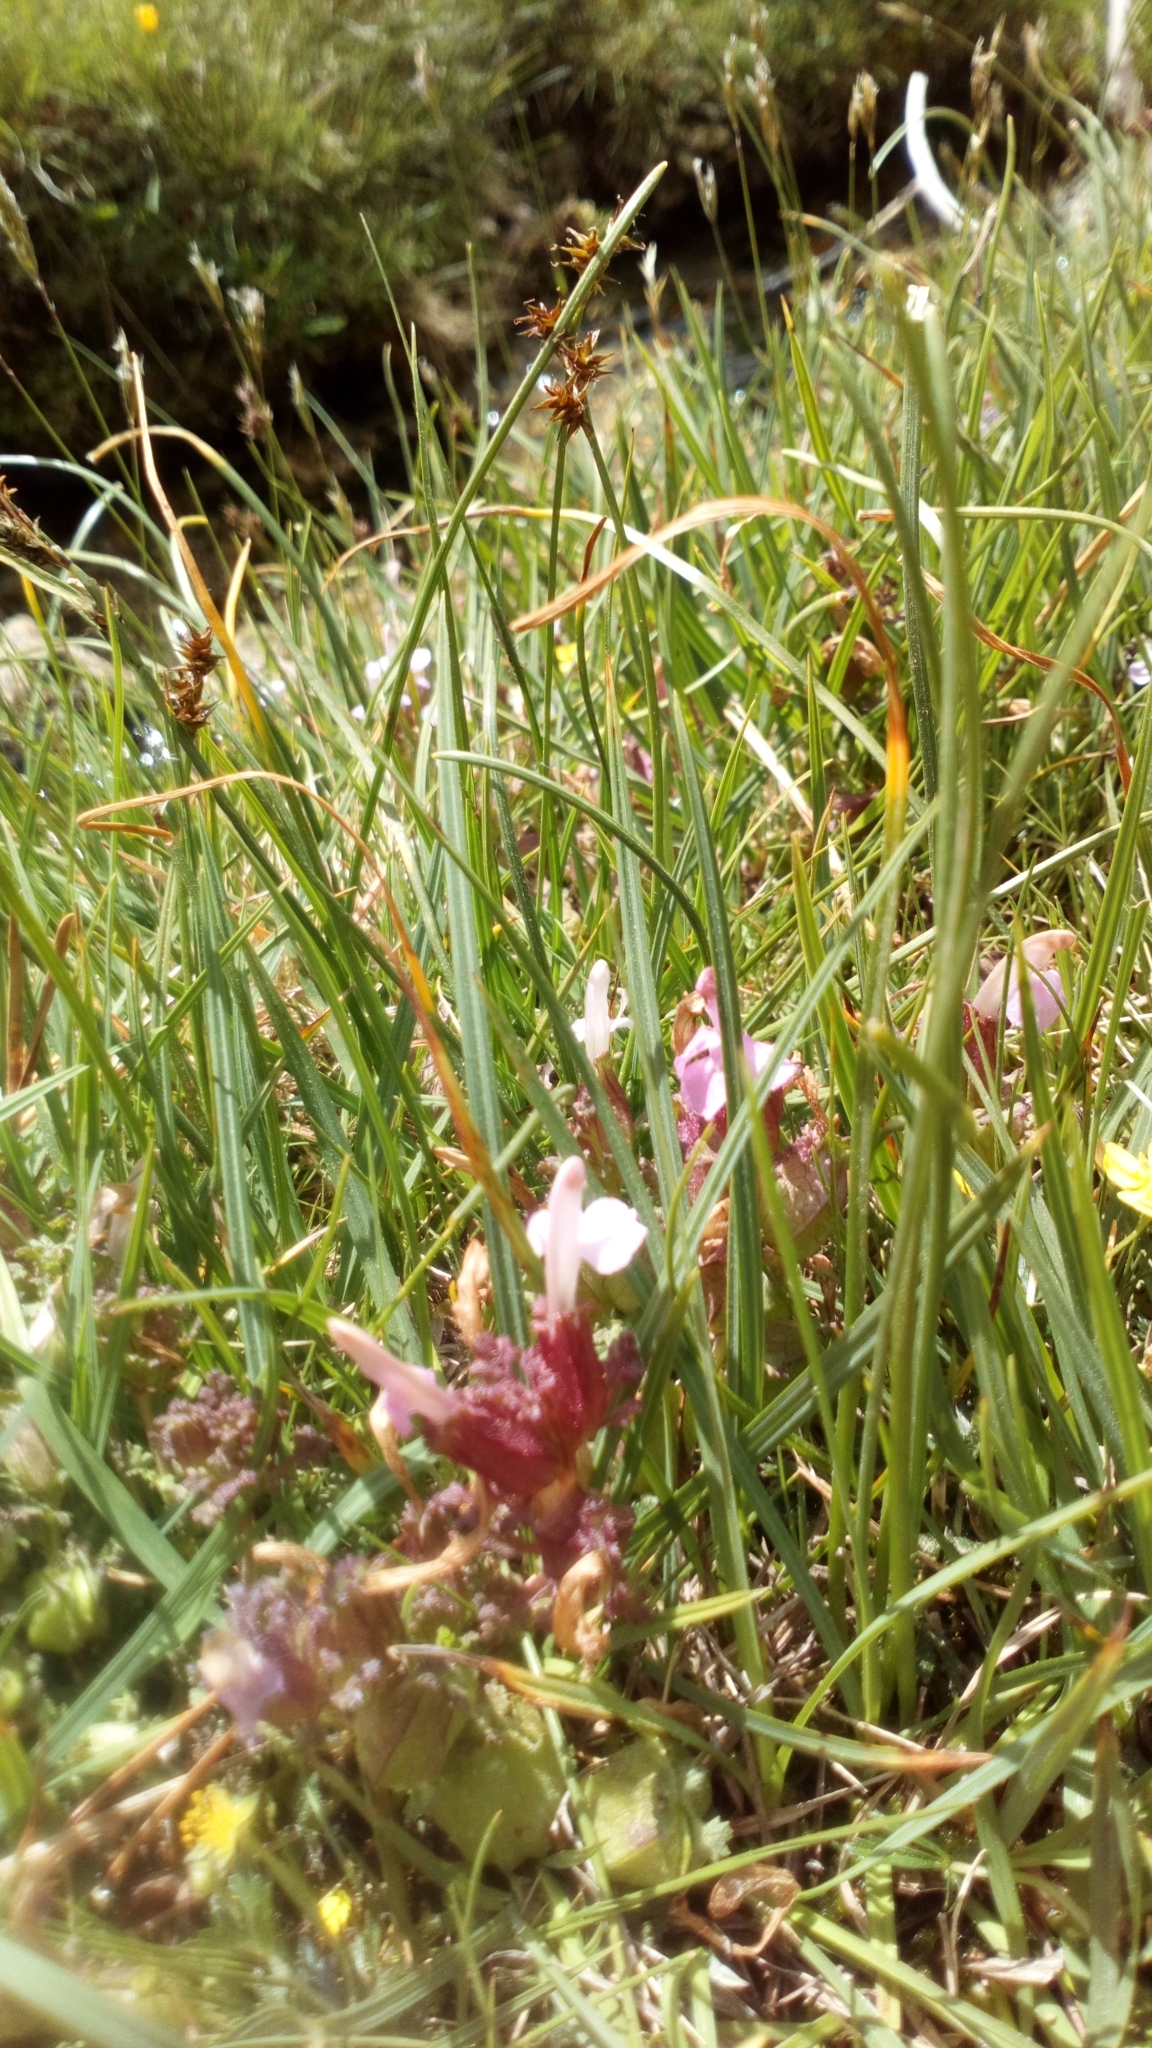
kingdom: Plantae
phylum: Tracheophyta
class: Magnoliopsida
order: Lamiales
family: Orobanchaceae
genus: Pedicularis
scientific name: Pedicularis sylvatica
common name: Lousewort
